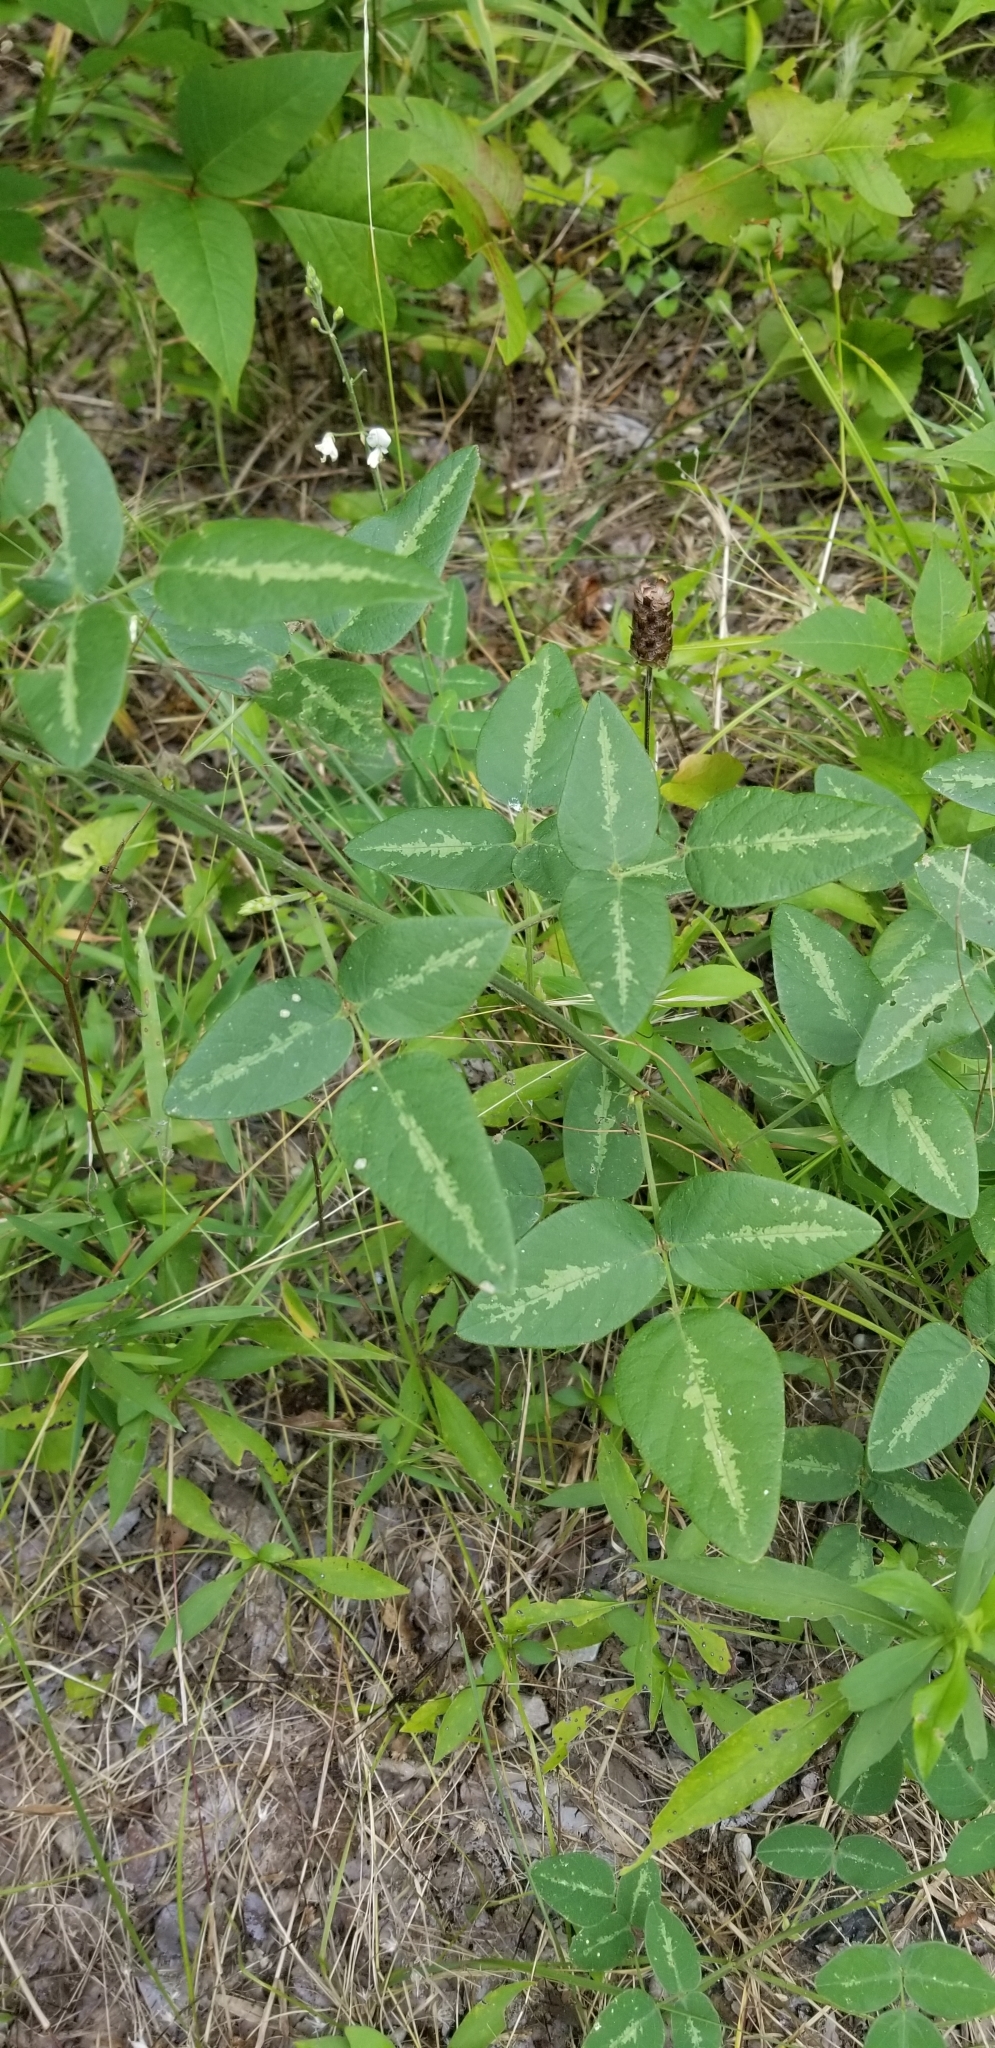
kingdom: Plantae
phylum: Tracheophyta
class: Magnoliopsida
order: Fabales
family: Fabaceae
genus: Desmodium
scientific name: Desmodium tweedyi
